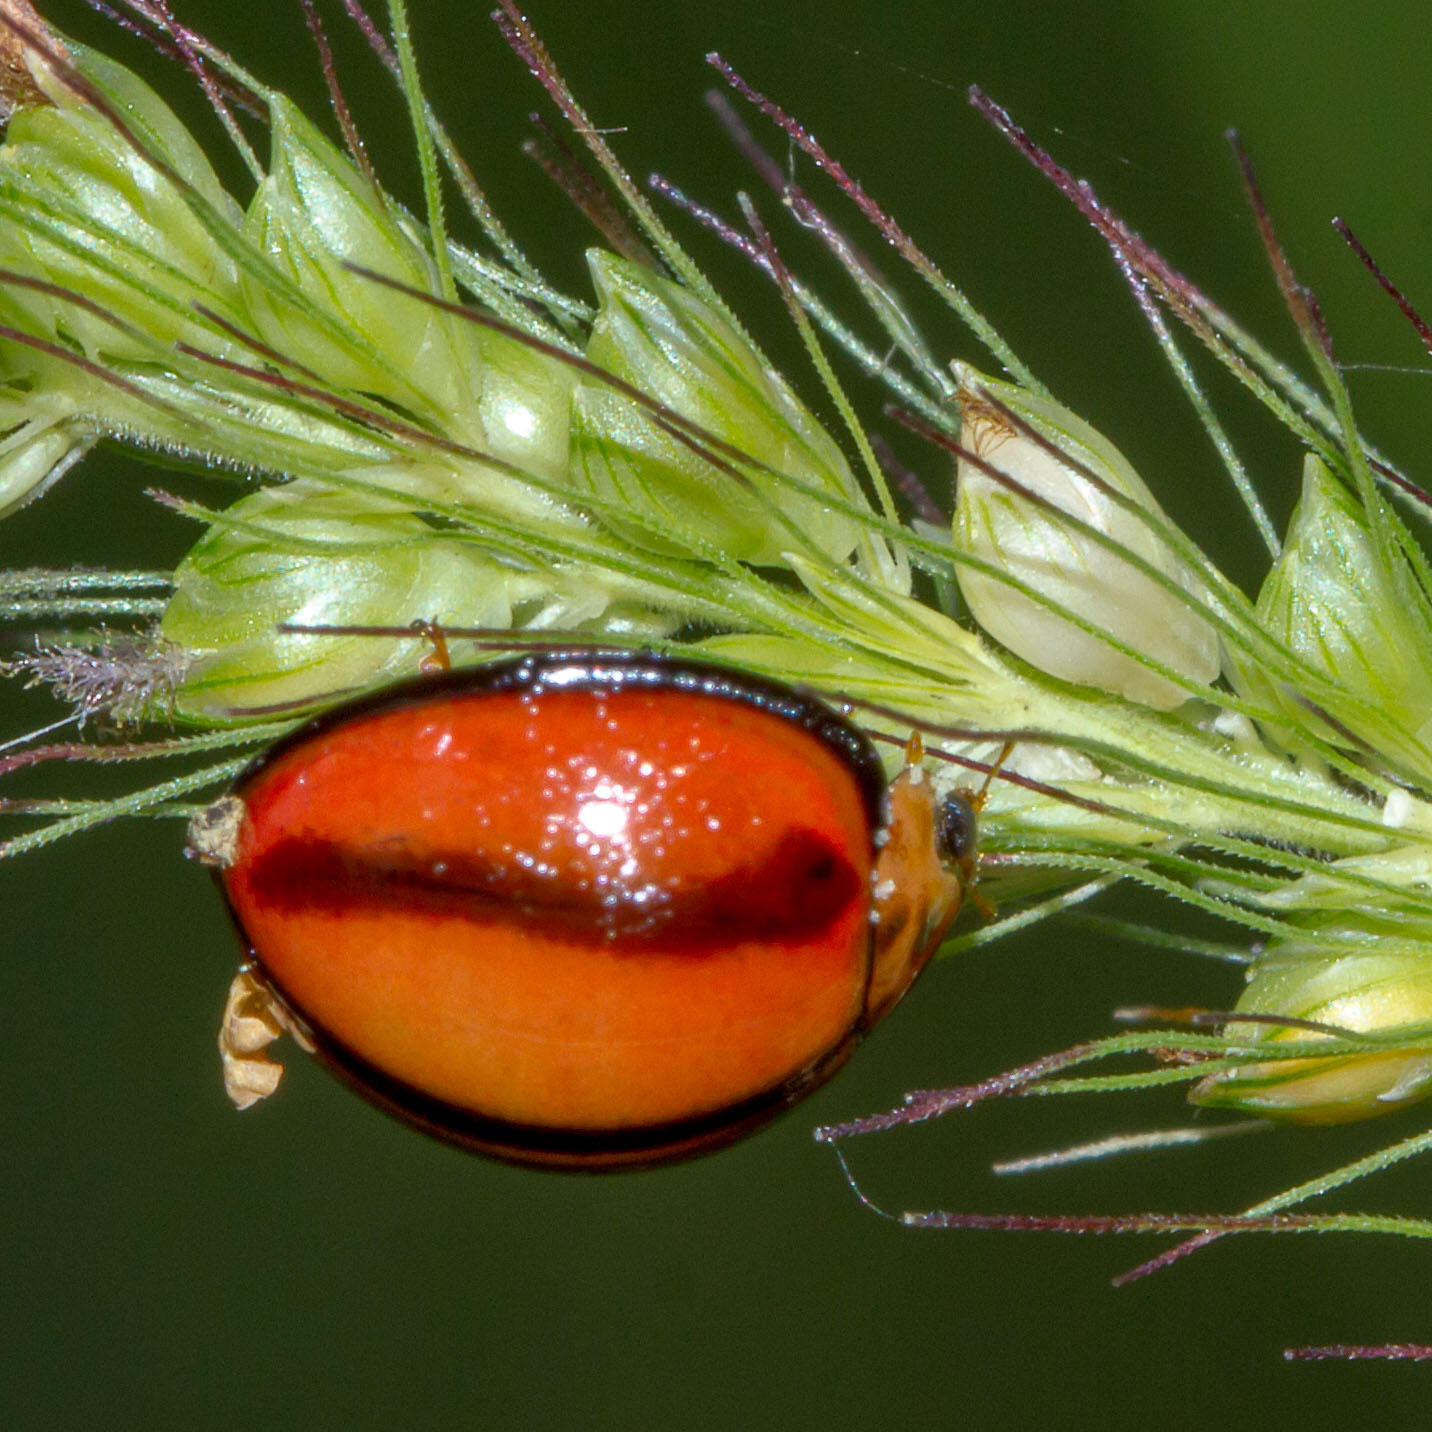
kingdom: Animalia
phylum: Arthropoda
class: Insecta
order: Coleoptera
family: Coccinellidae
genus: Declivitata
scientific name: Declivitata
